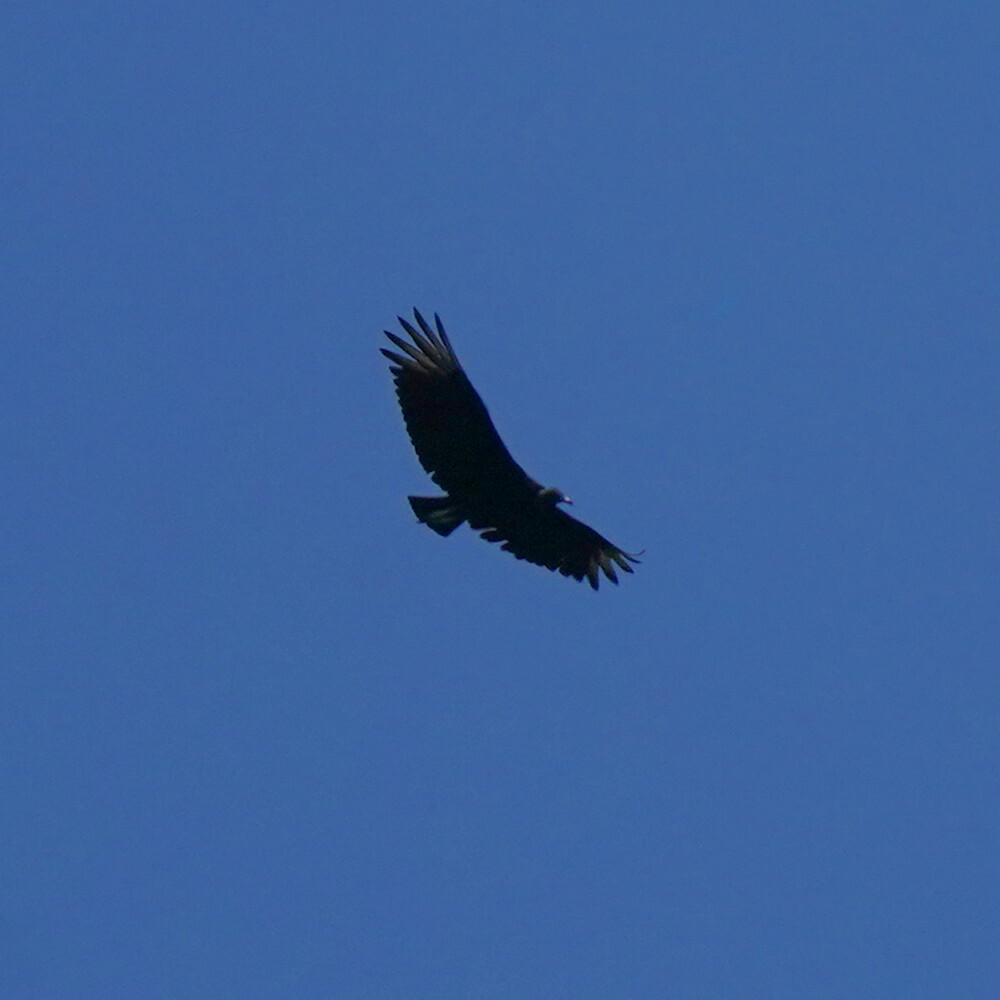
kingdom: Animalia
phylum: Chordata
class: Aves
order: Accipitriformes
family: Cathartidae
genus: Coragyps
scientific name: Coragyps atratus
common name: Black vulture
